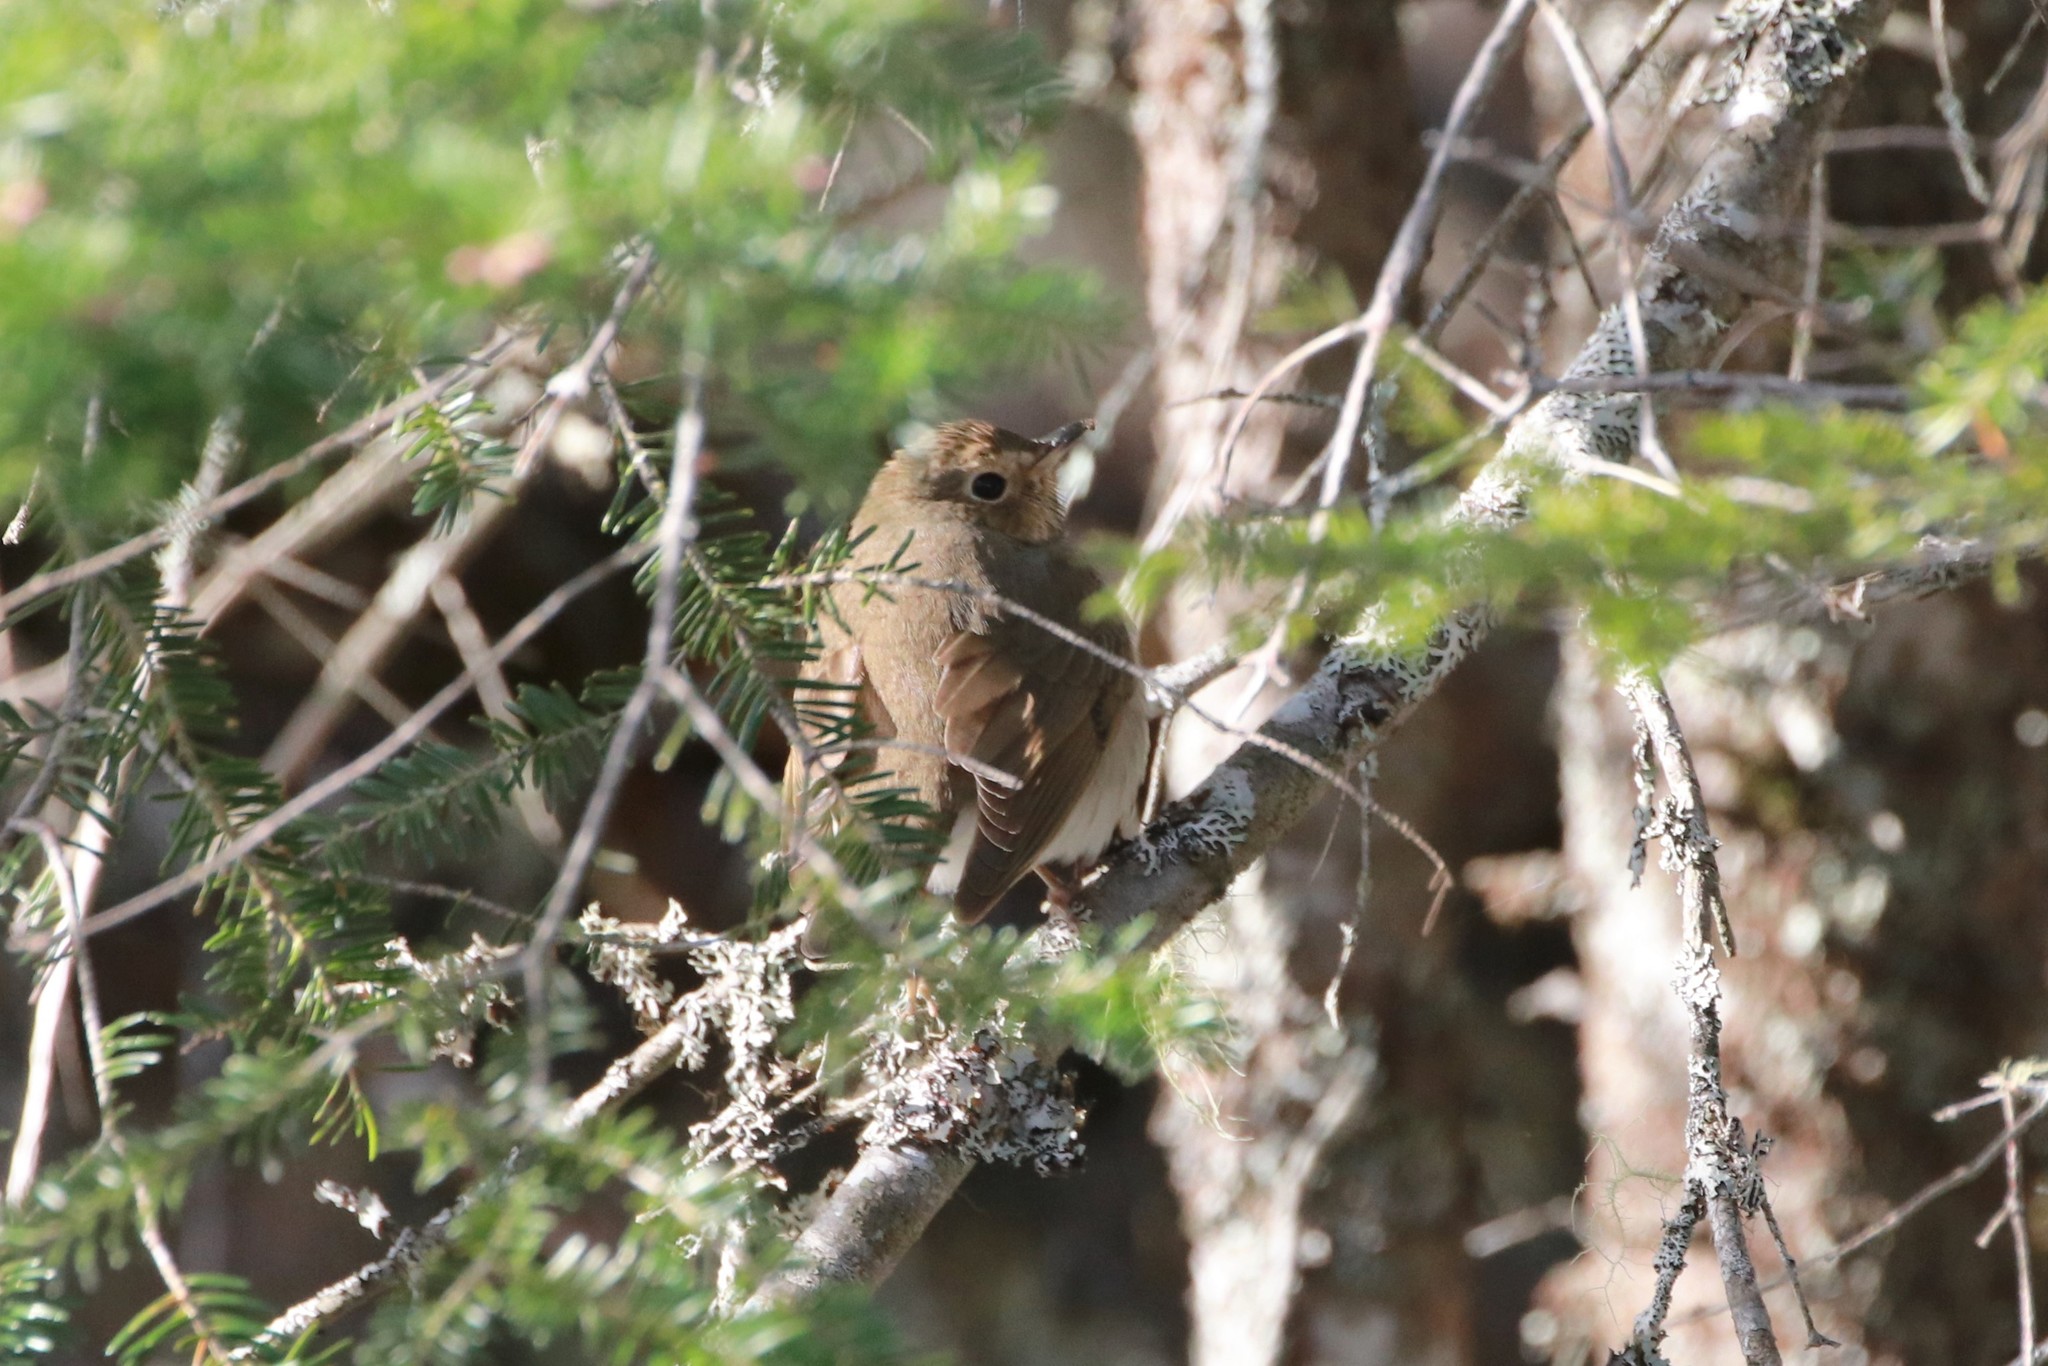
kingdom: Animalia
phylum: Chordata
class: Aves
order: Passeriformes
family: Turdidae
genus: Catharus
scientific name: Catharus guttatus
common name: Hermit thrush
